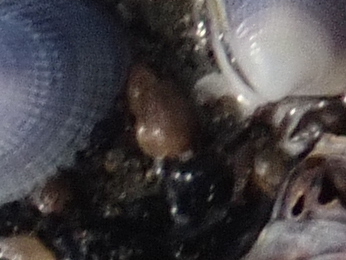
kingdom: Animalia
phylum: Mollusca
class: Gastropoda
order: Littorinimorpha
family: Tateidae
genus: Potamopyrgus
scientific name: Potamopyrgus estuarinus
